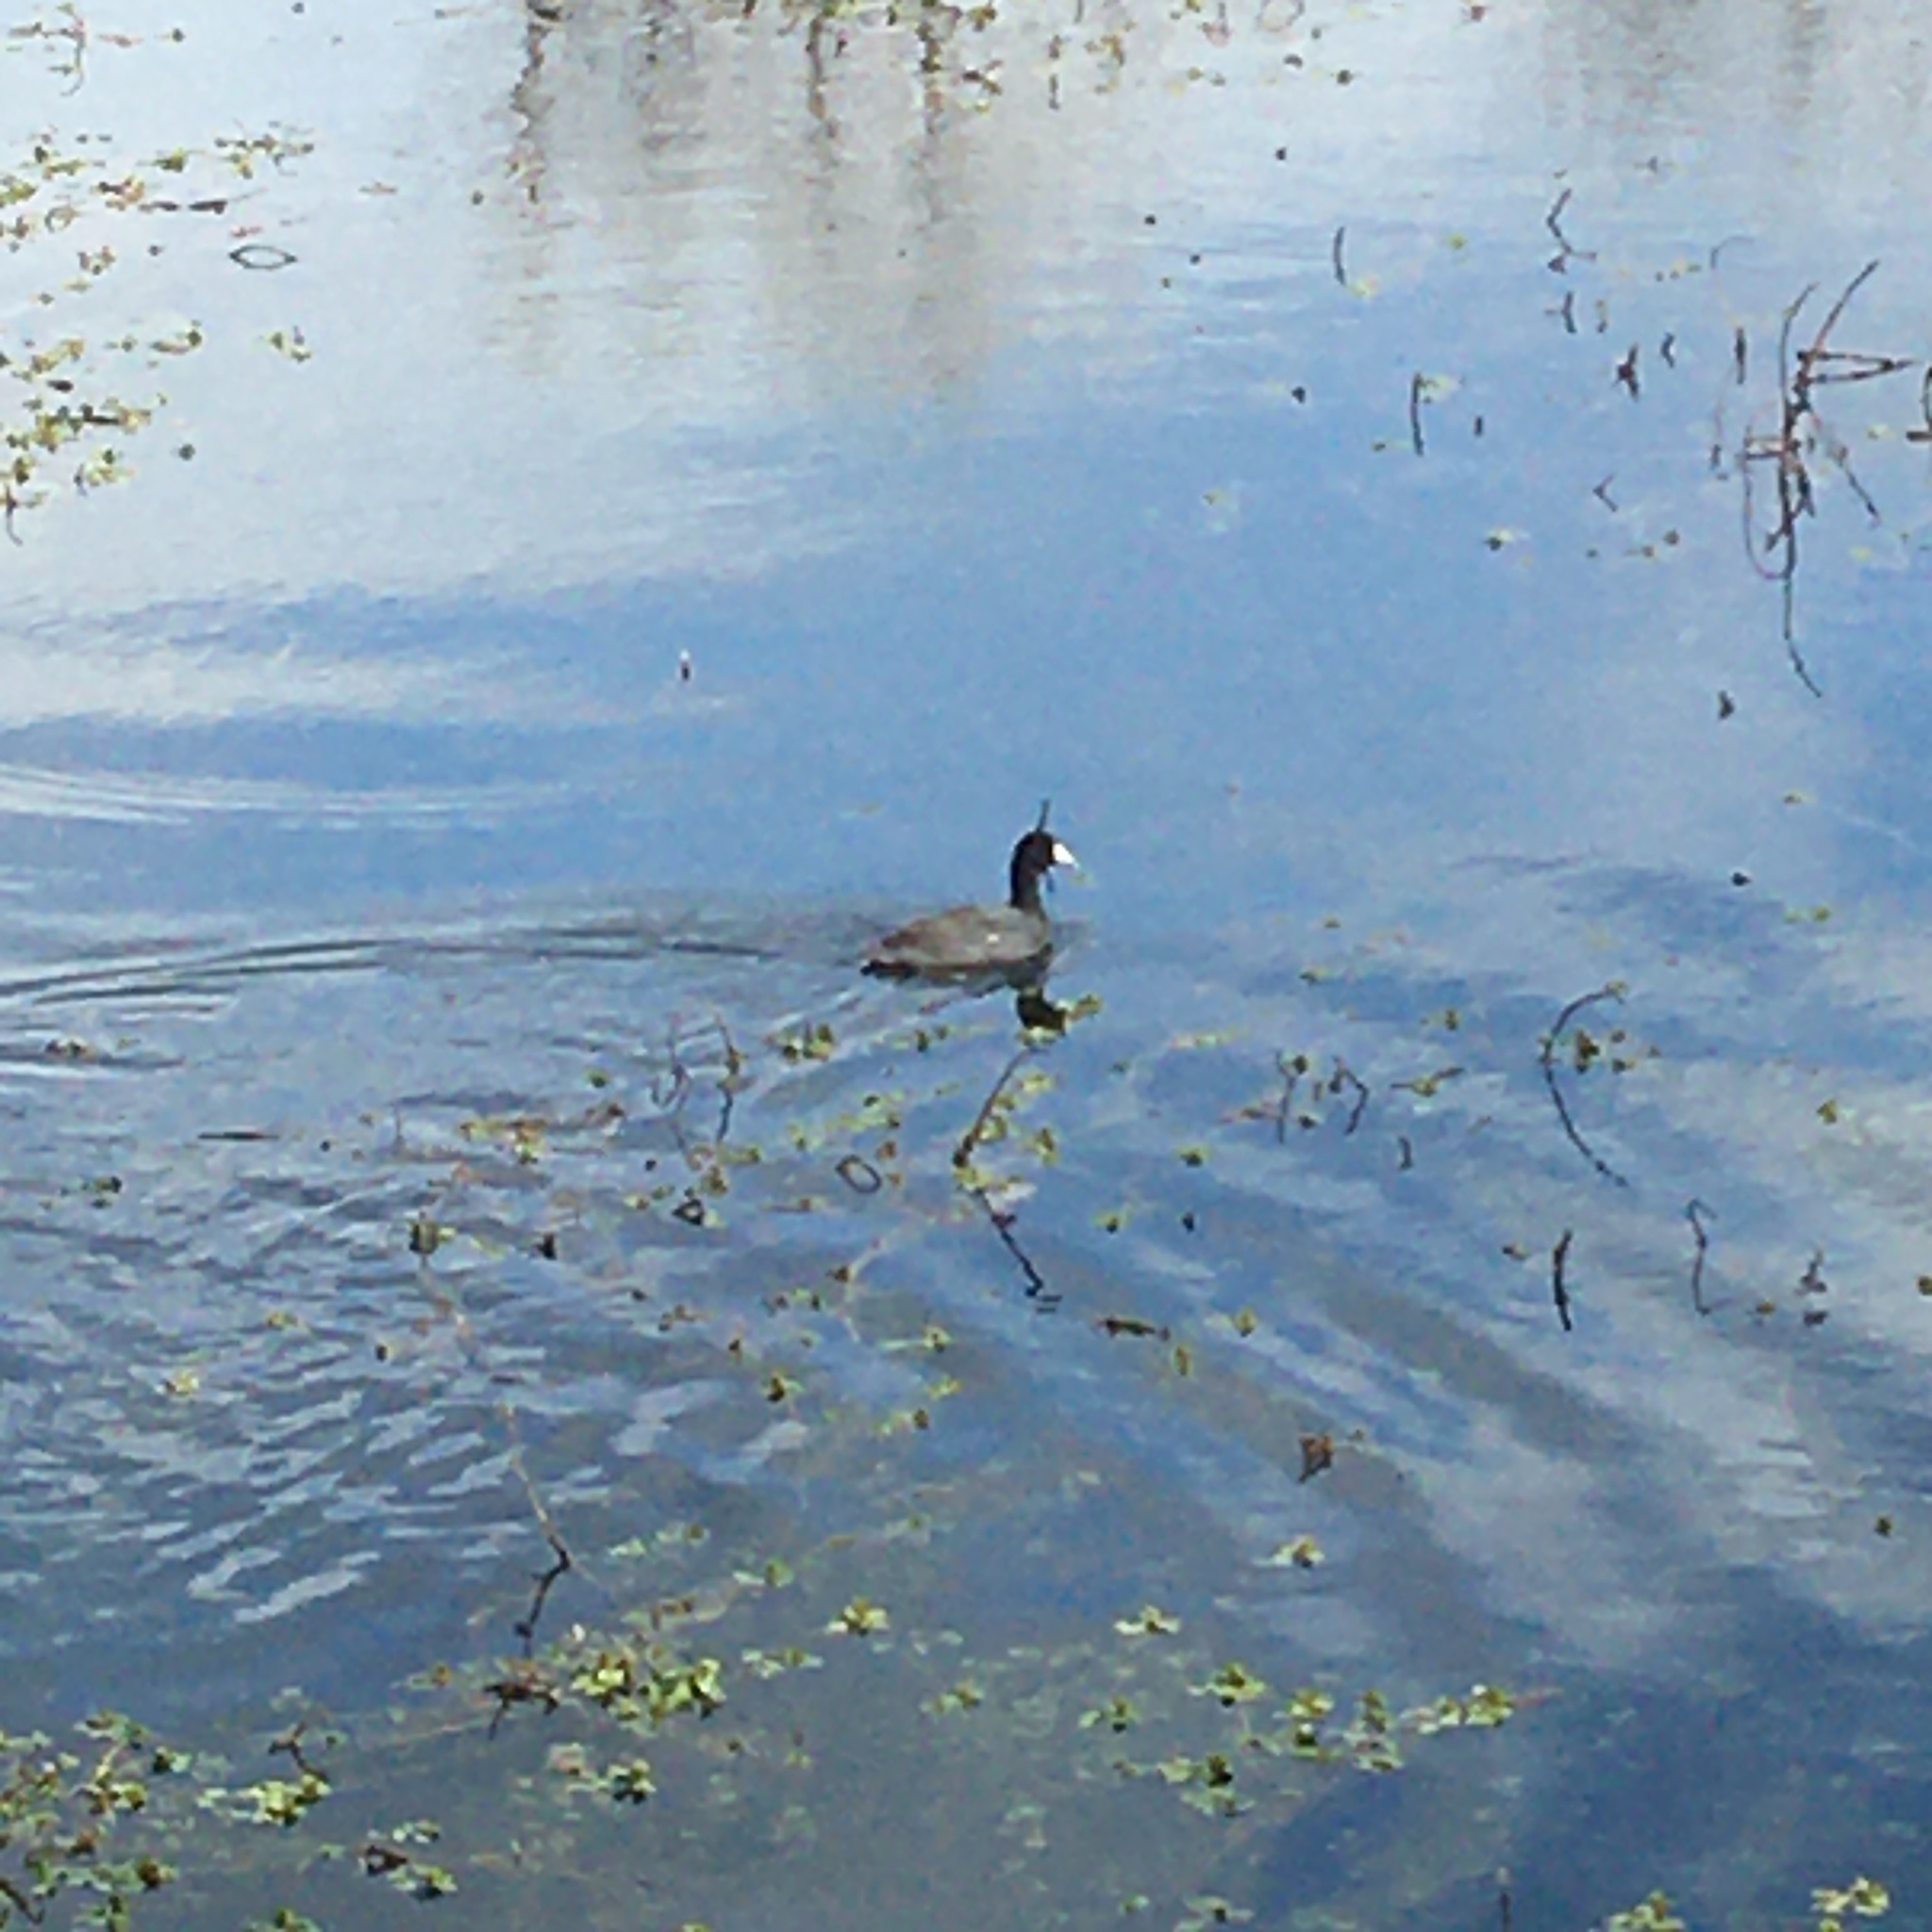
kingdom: Animalia
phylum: Chordata
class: Aves
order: Gruiformes
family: Rallidae
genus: Fulica
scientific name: Fulica americana
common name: American coot
